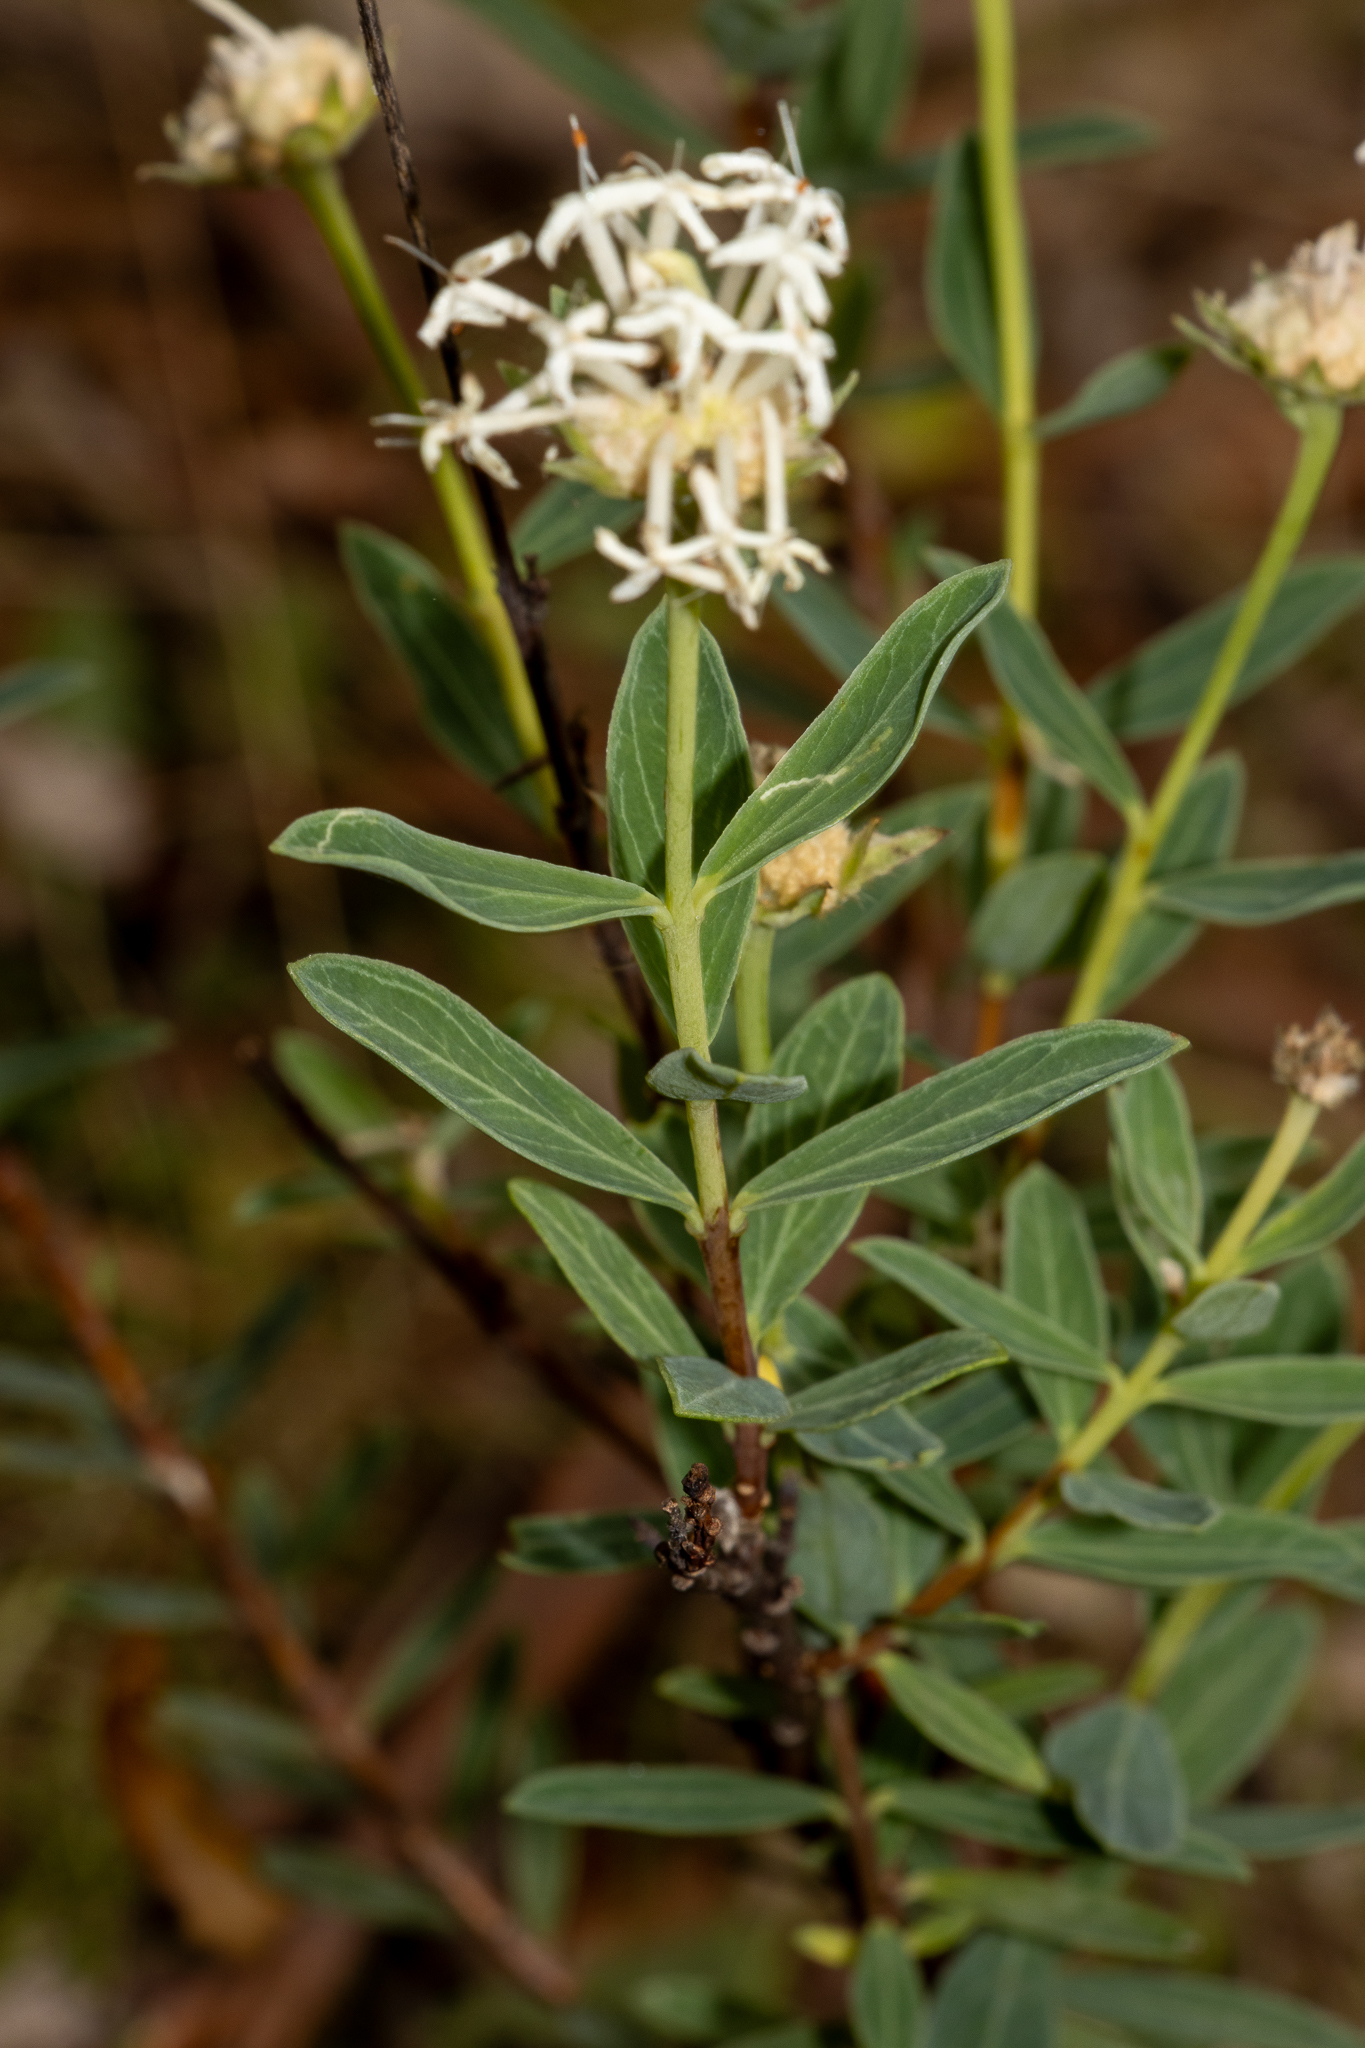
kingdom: Plantae
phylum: Tracheophyta
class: Magnoliopsida
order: Malvales
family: Thymelaeaceae
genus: Pimelea
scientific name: Pimelea treyvaudii
